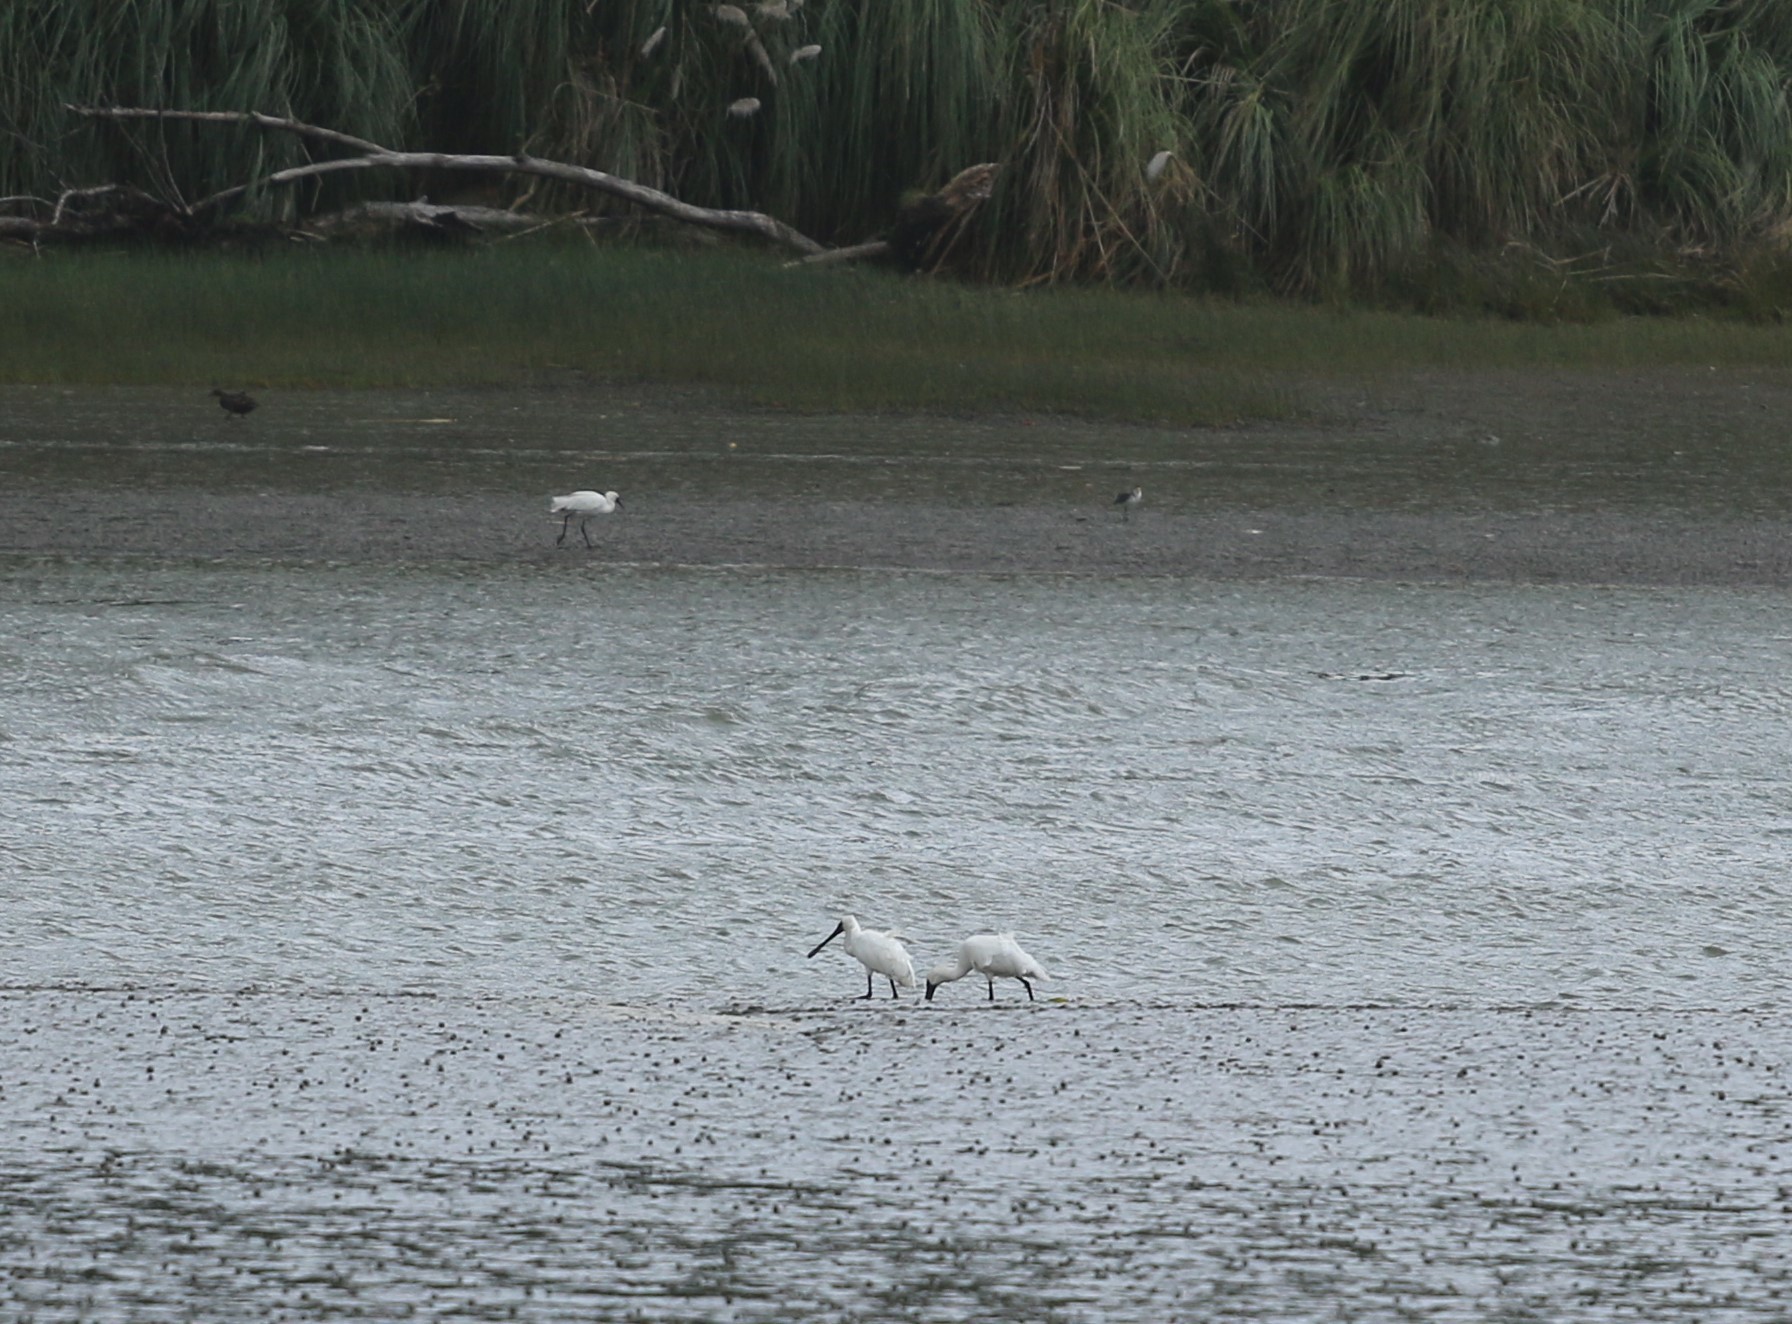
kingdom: Animalia
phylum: Chordata
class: Aves
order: Pelecaniformes
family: Threskiornithidae
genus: Platalea
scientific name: Platalea regia
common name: Royal spoonbill
